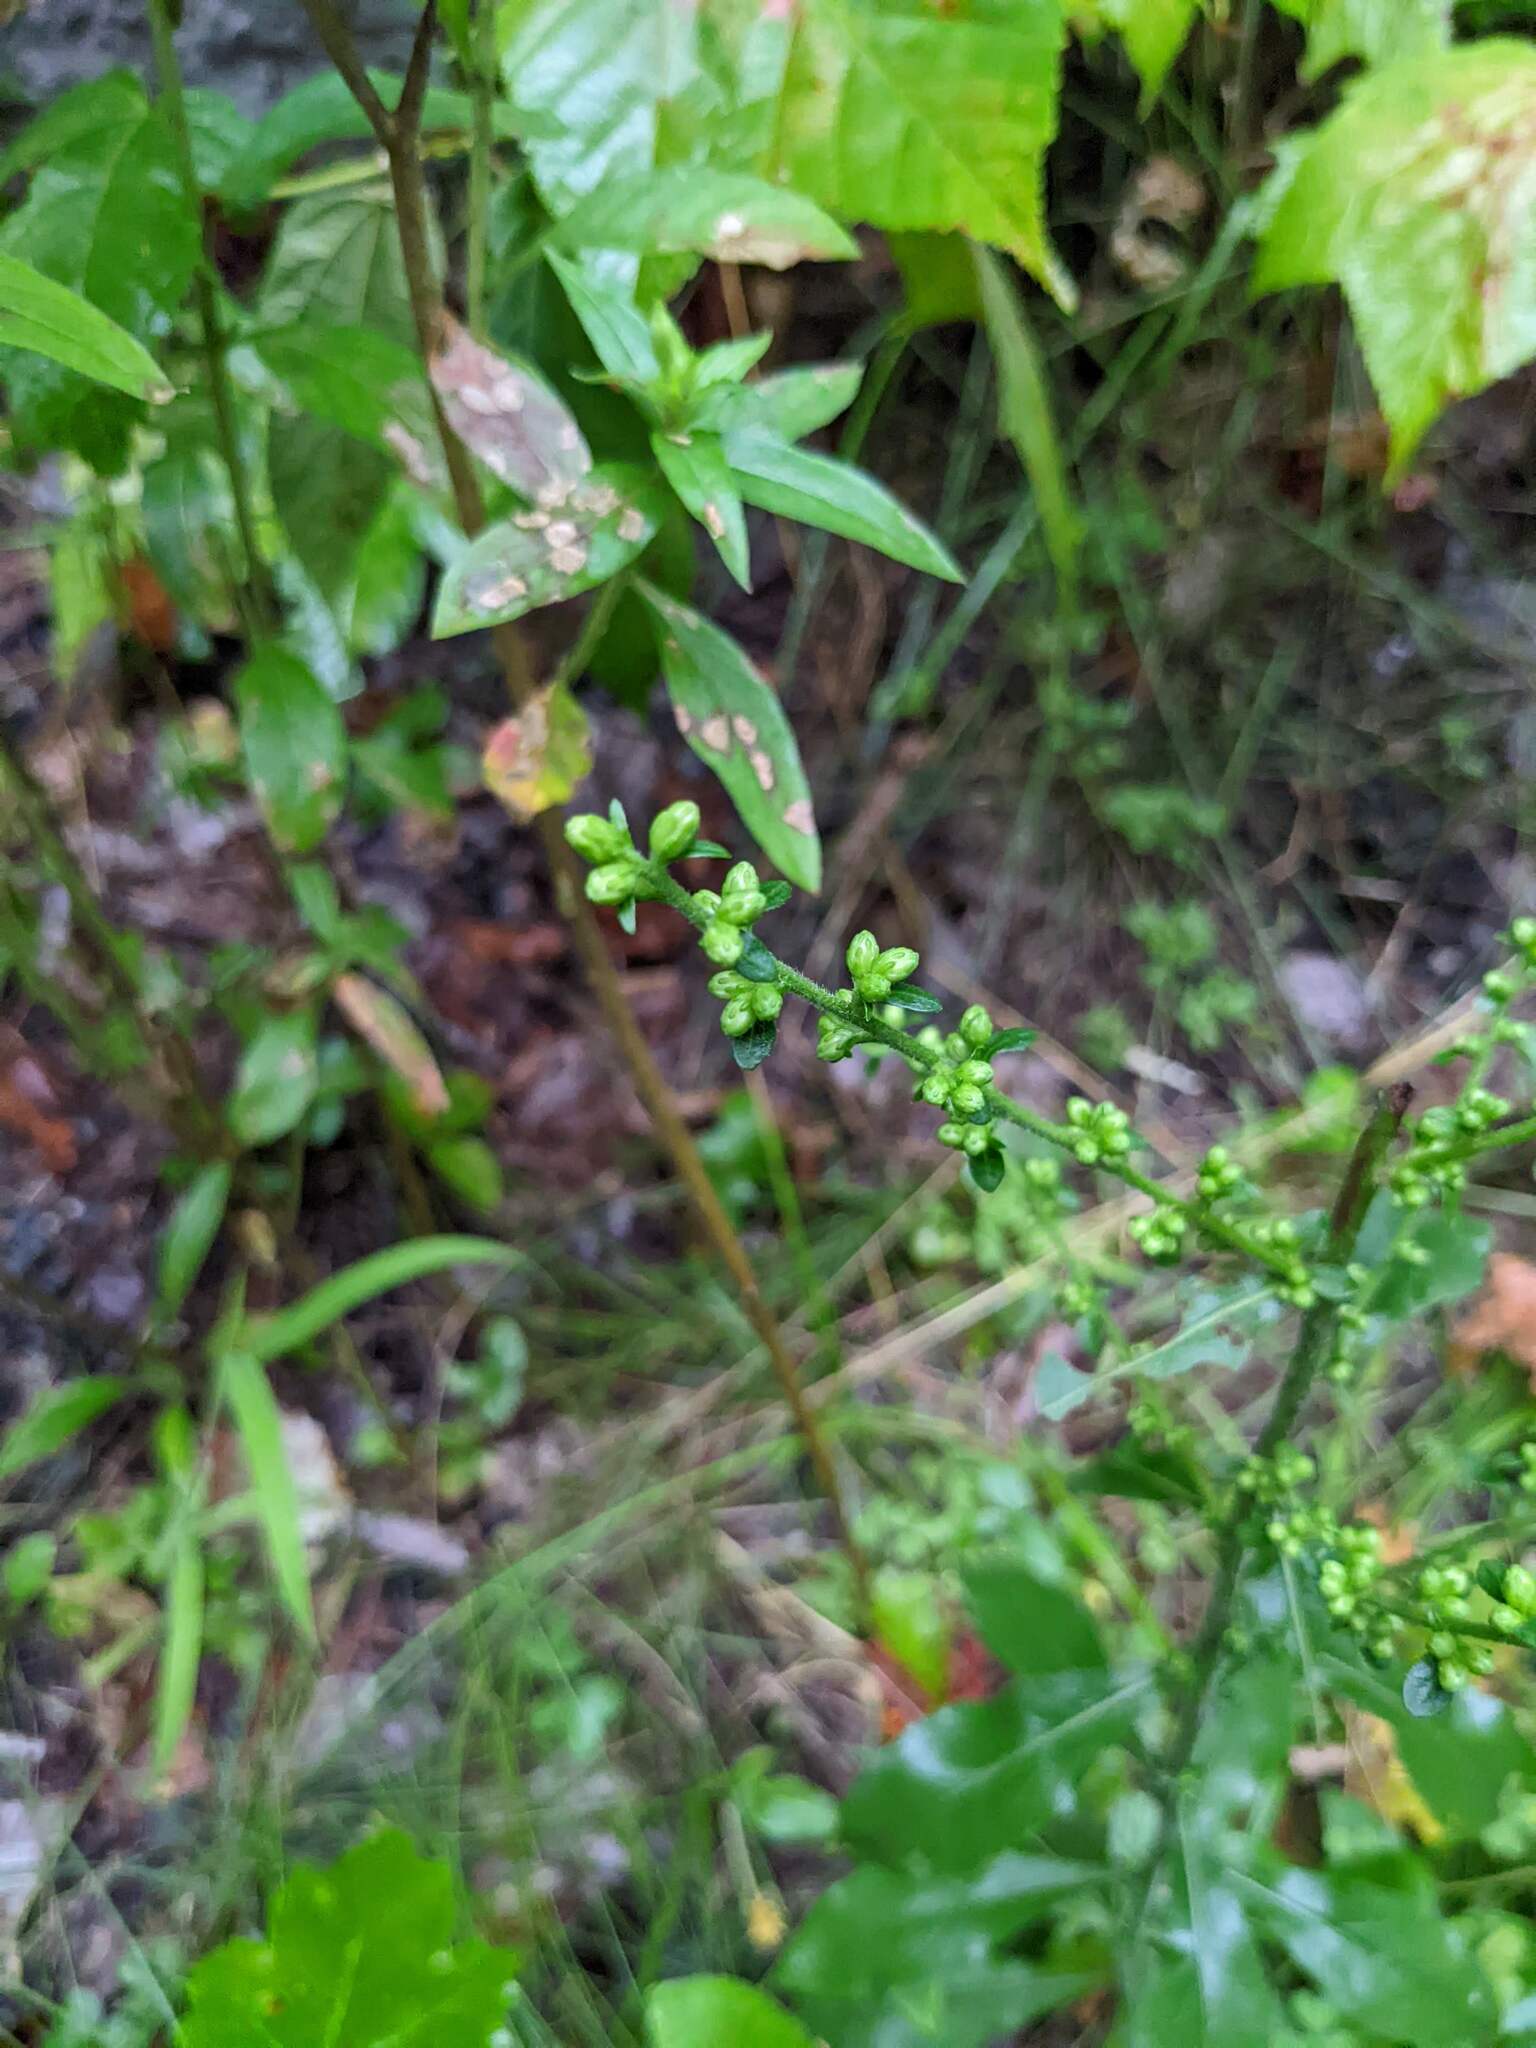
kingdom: Plantae
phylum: Tracheophyta
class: Magnoliopsida
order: Asterales
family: Asteraceae
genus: Solidago
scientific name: Solidago bicolor
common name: Silverrod
